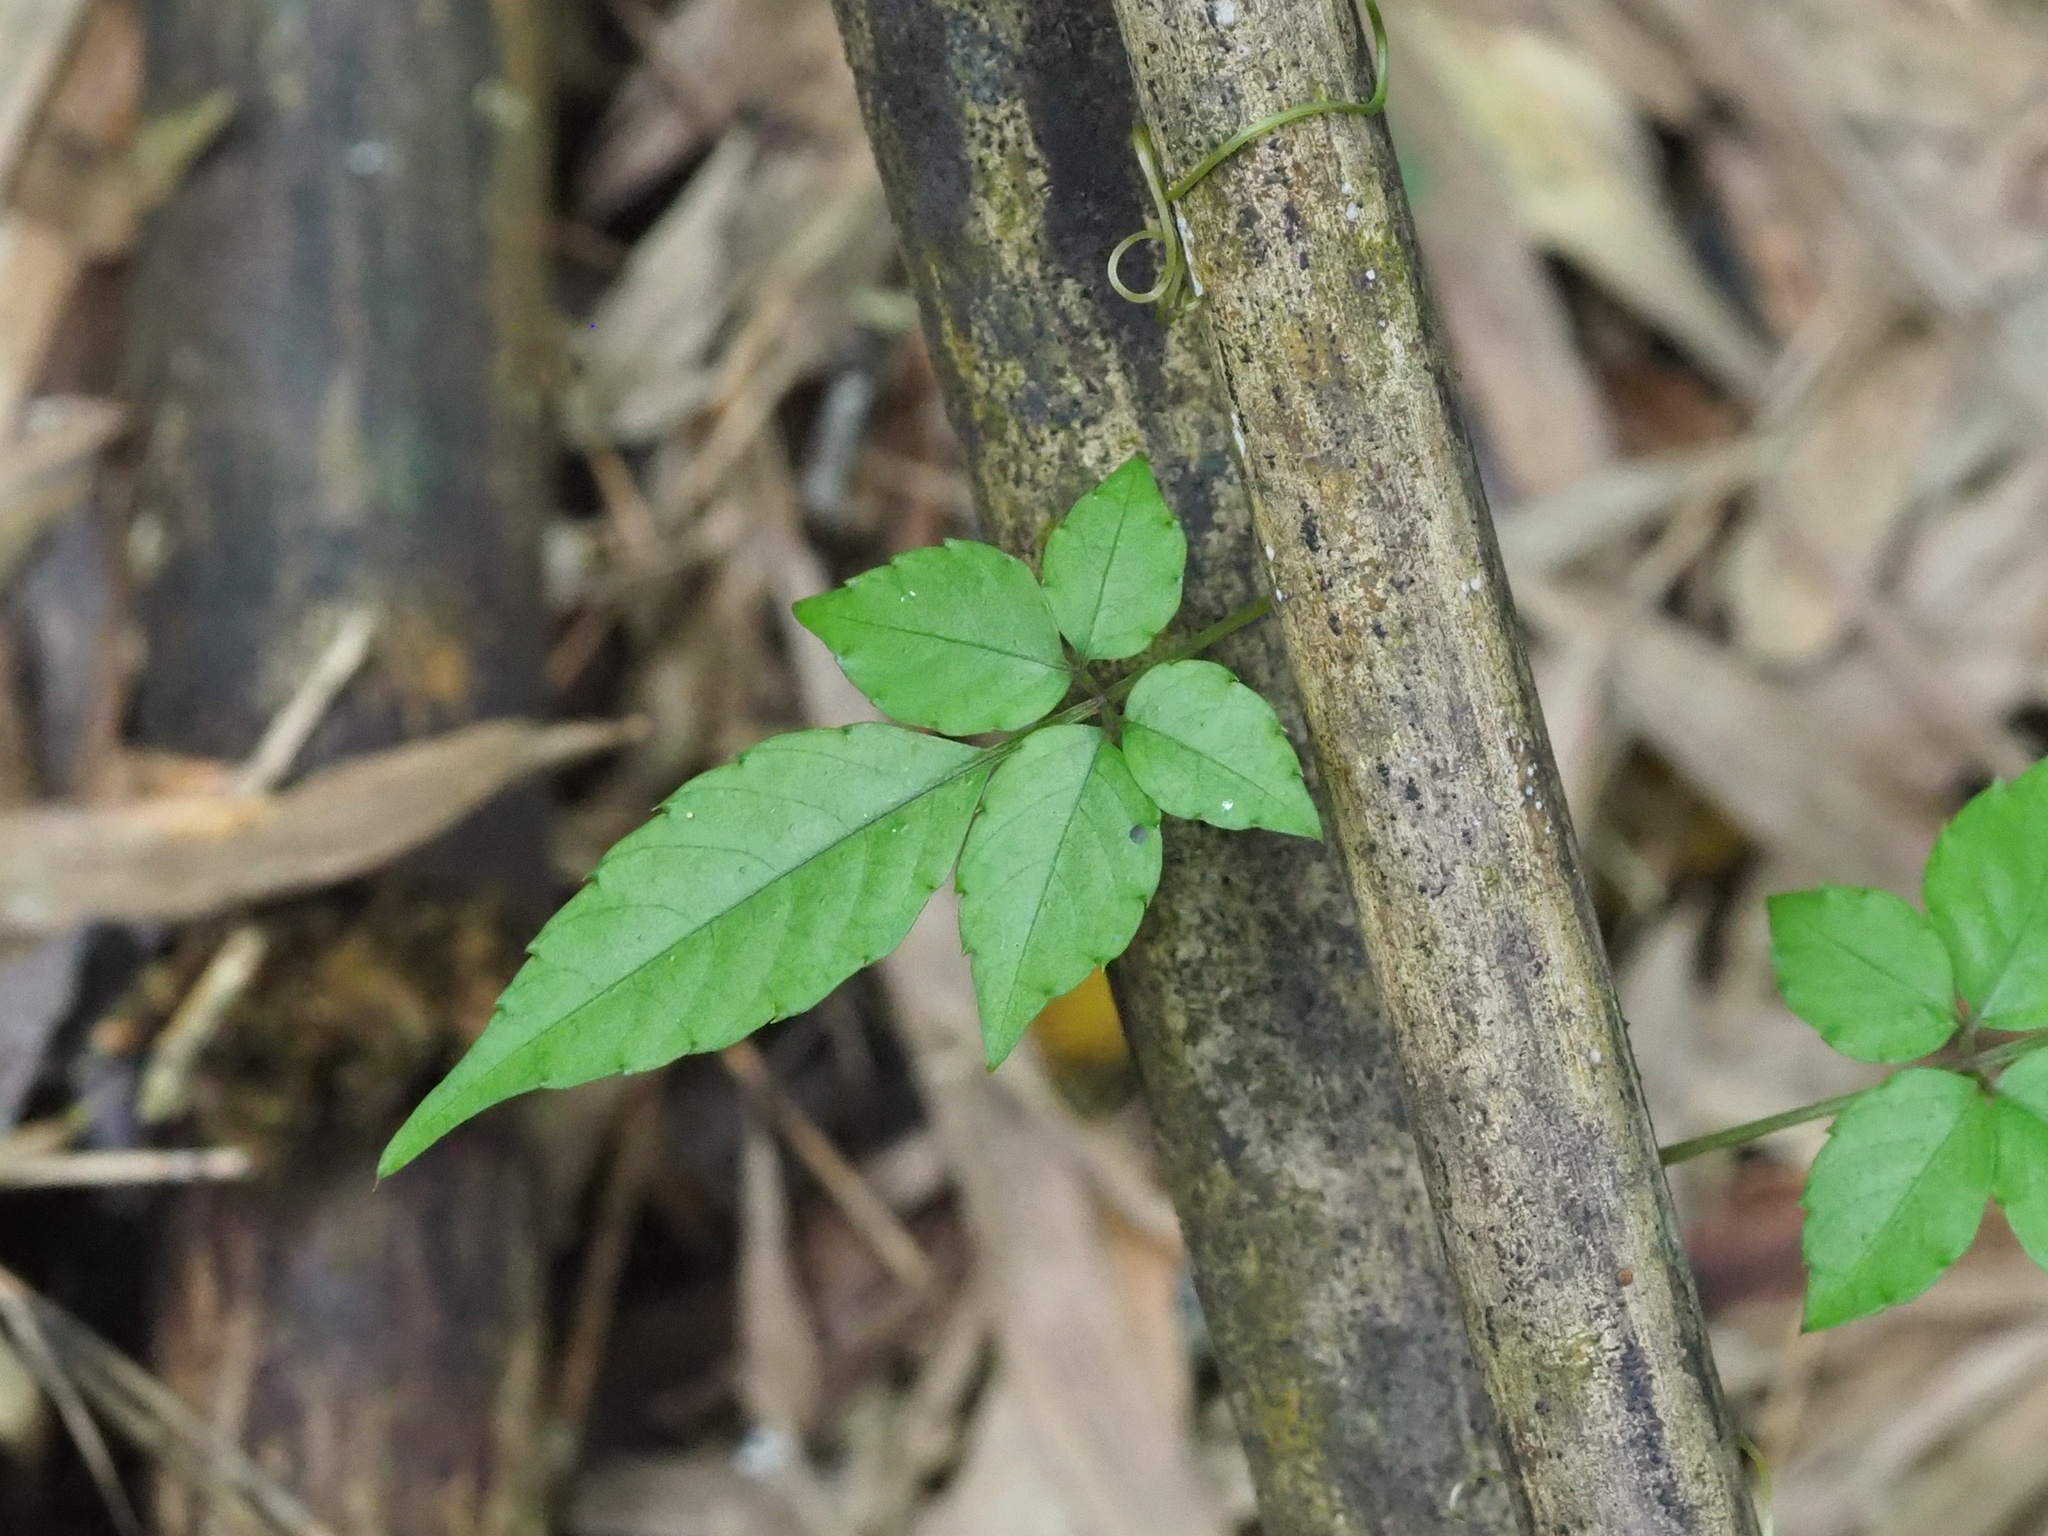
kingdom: Plantae
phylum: Tracheophyta
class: Magnoliopsida
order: Vitales
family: Vitaceae
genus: Causonis
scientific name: Causonis corniculata
